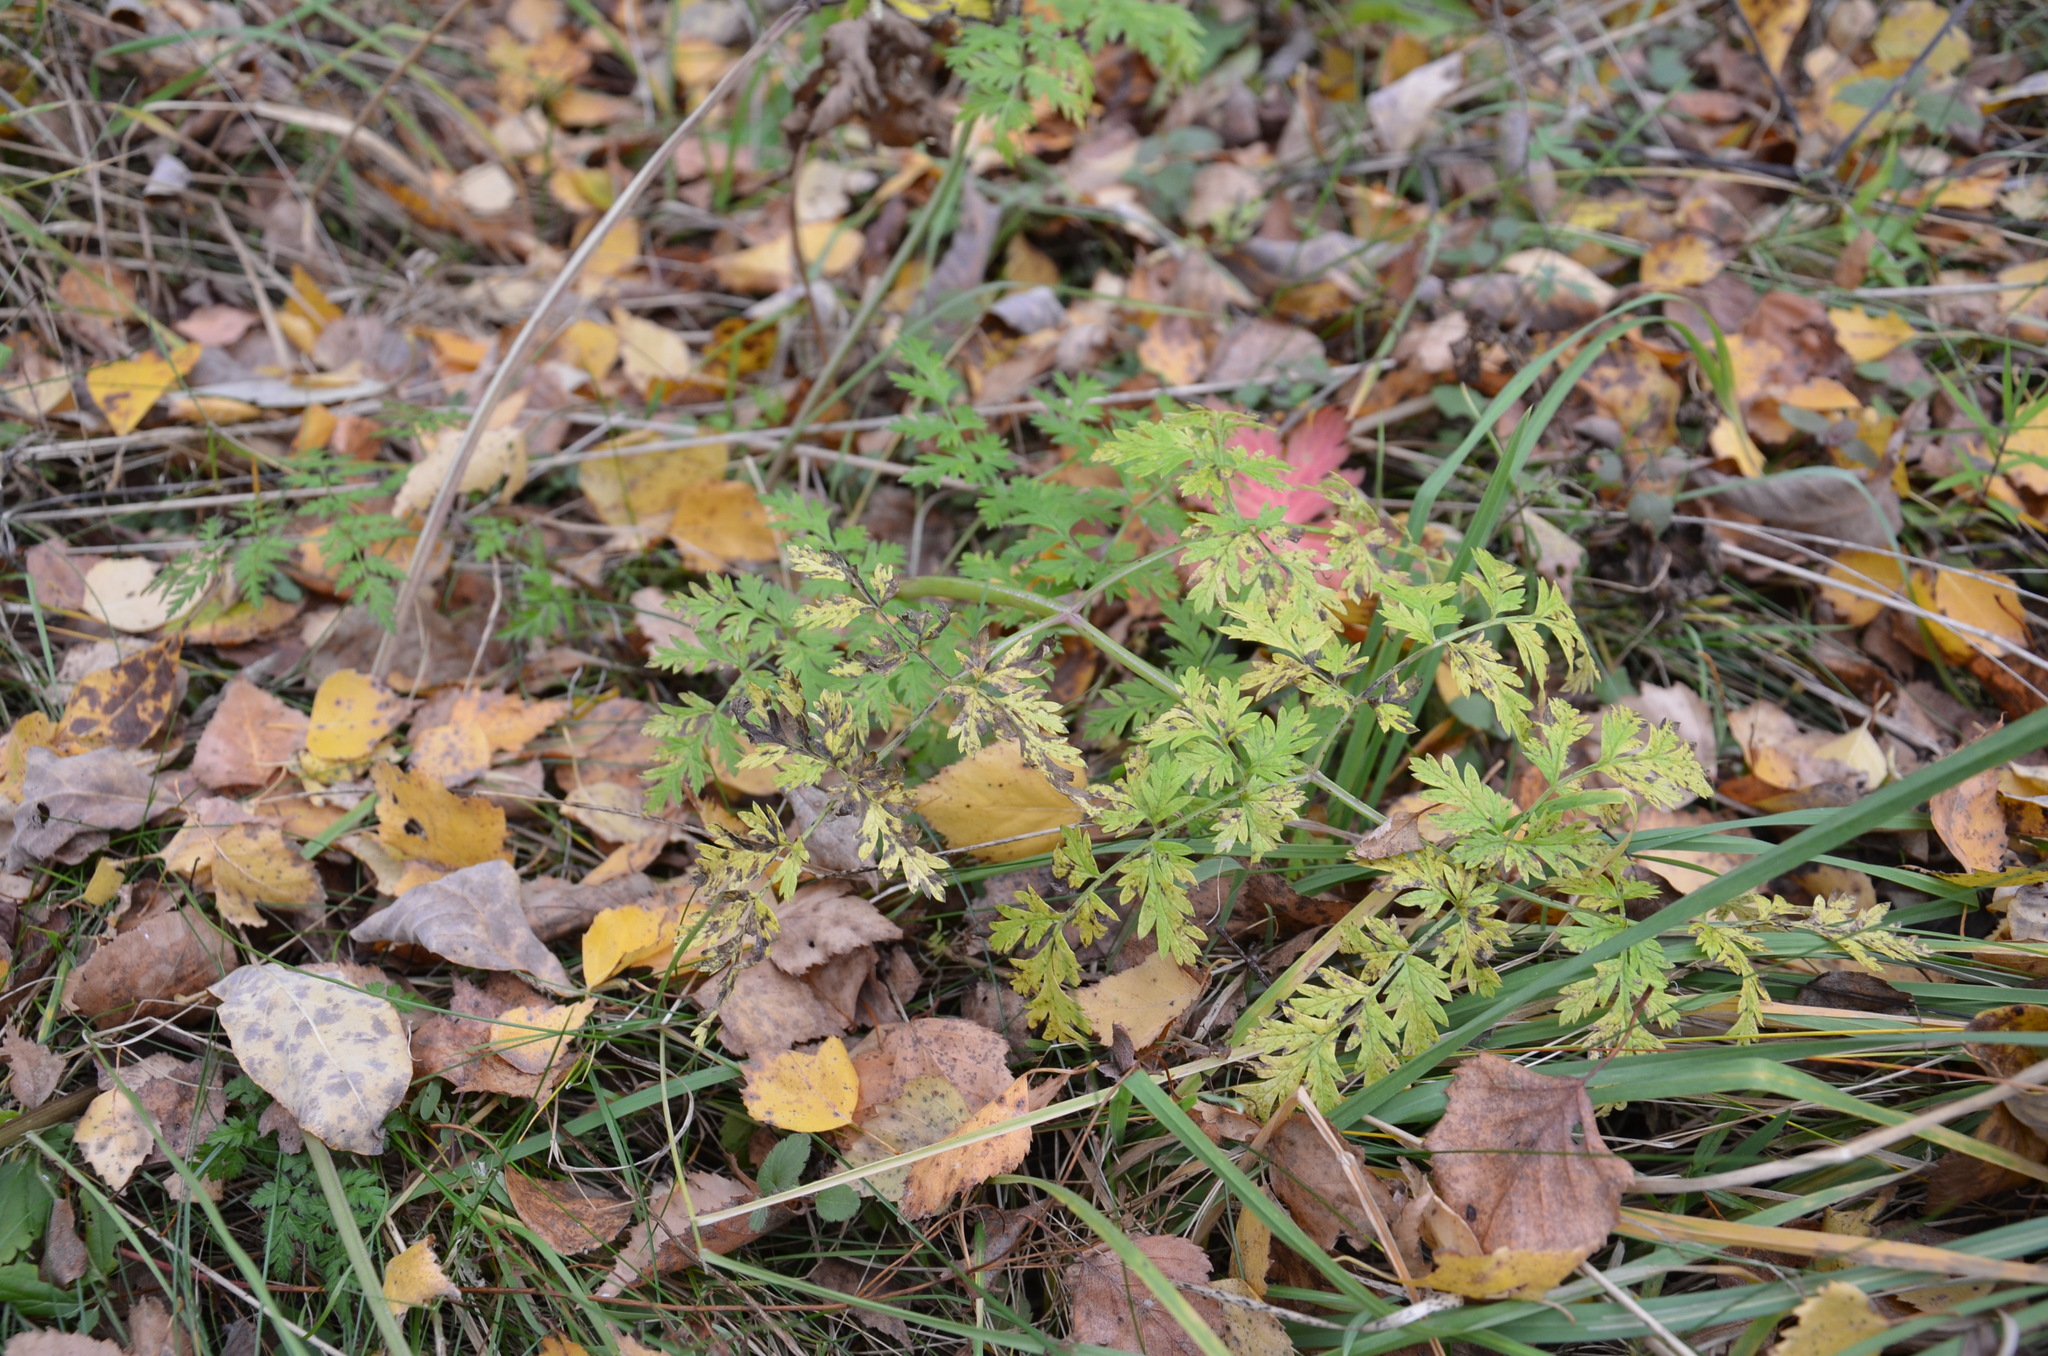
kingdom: Plantae
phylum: Tracheophyta
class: Magnoliopsida
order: Apiales
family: Apiaceae
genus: Anthriscus
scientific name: Anthriscus sylvestris
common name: Cow parsley
